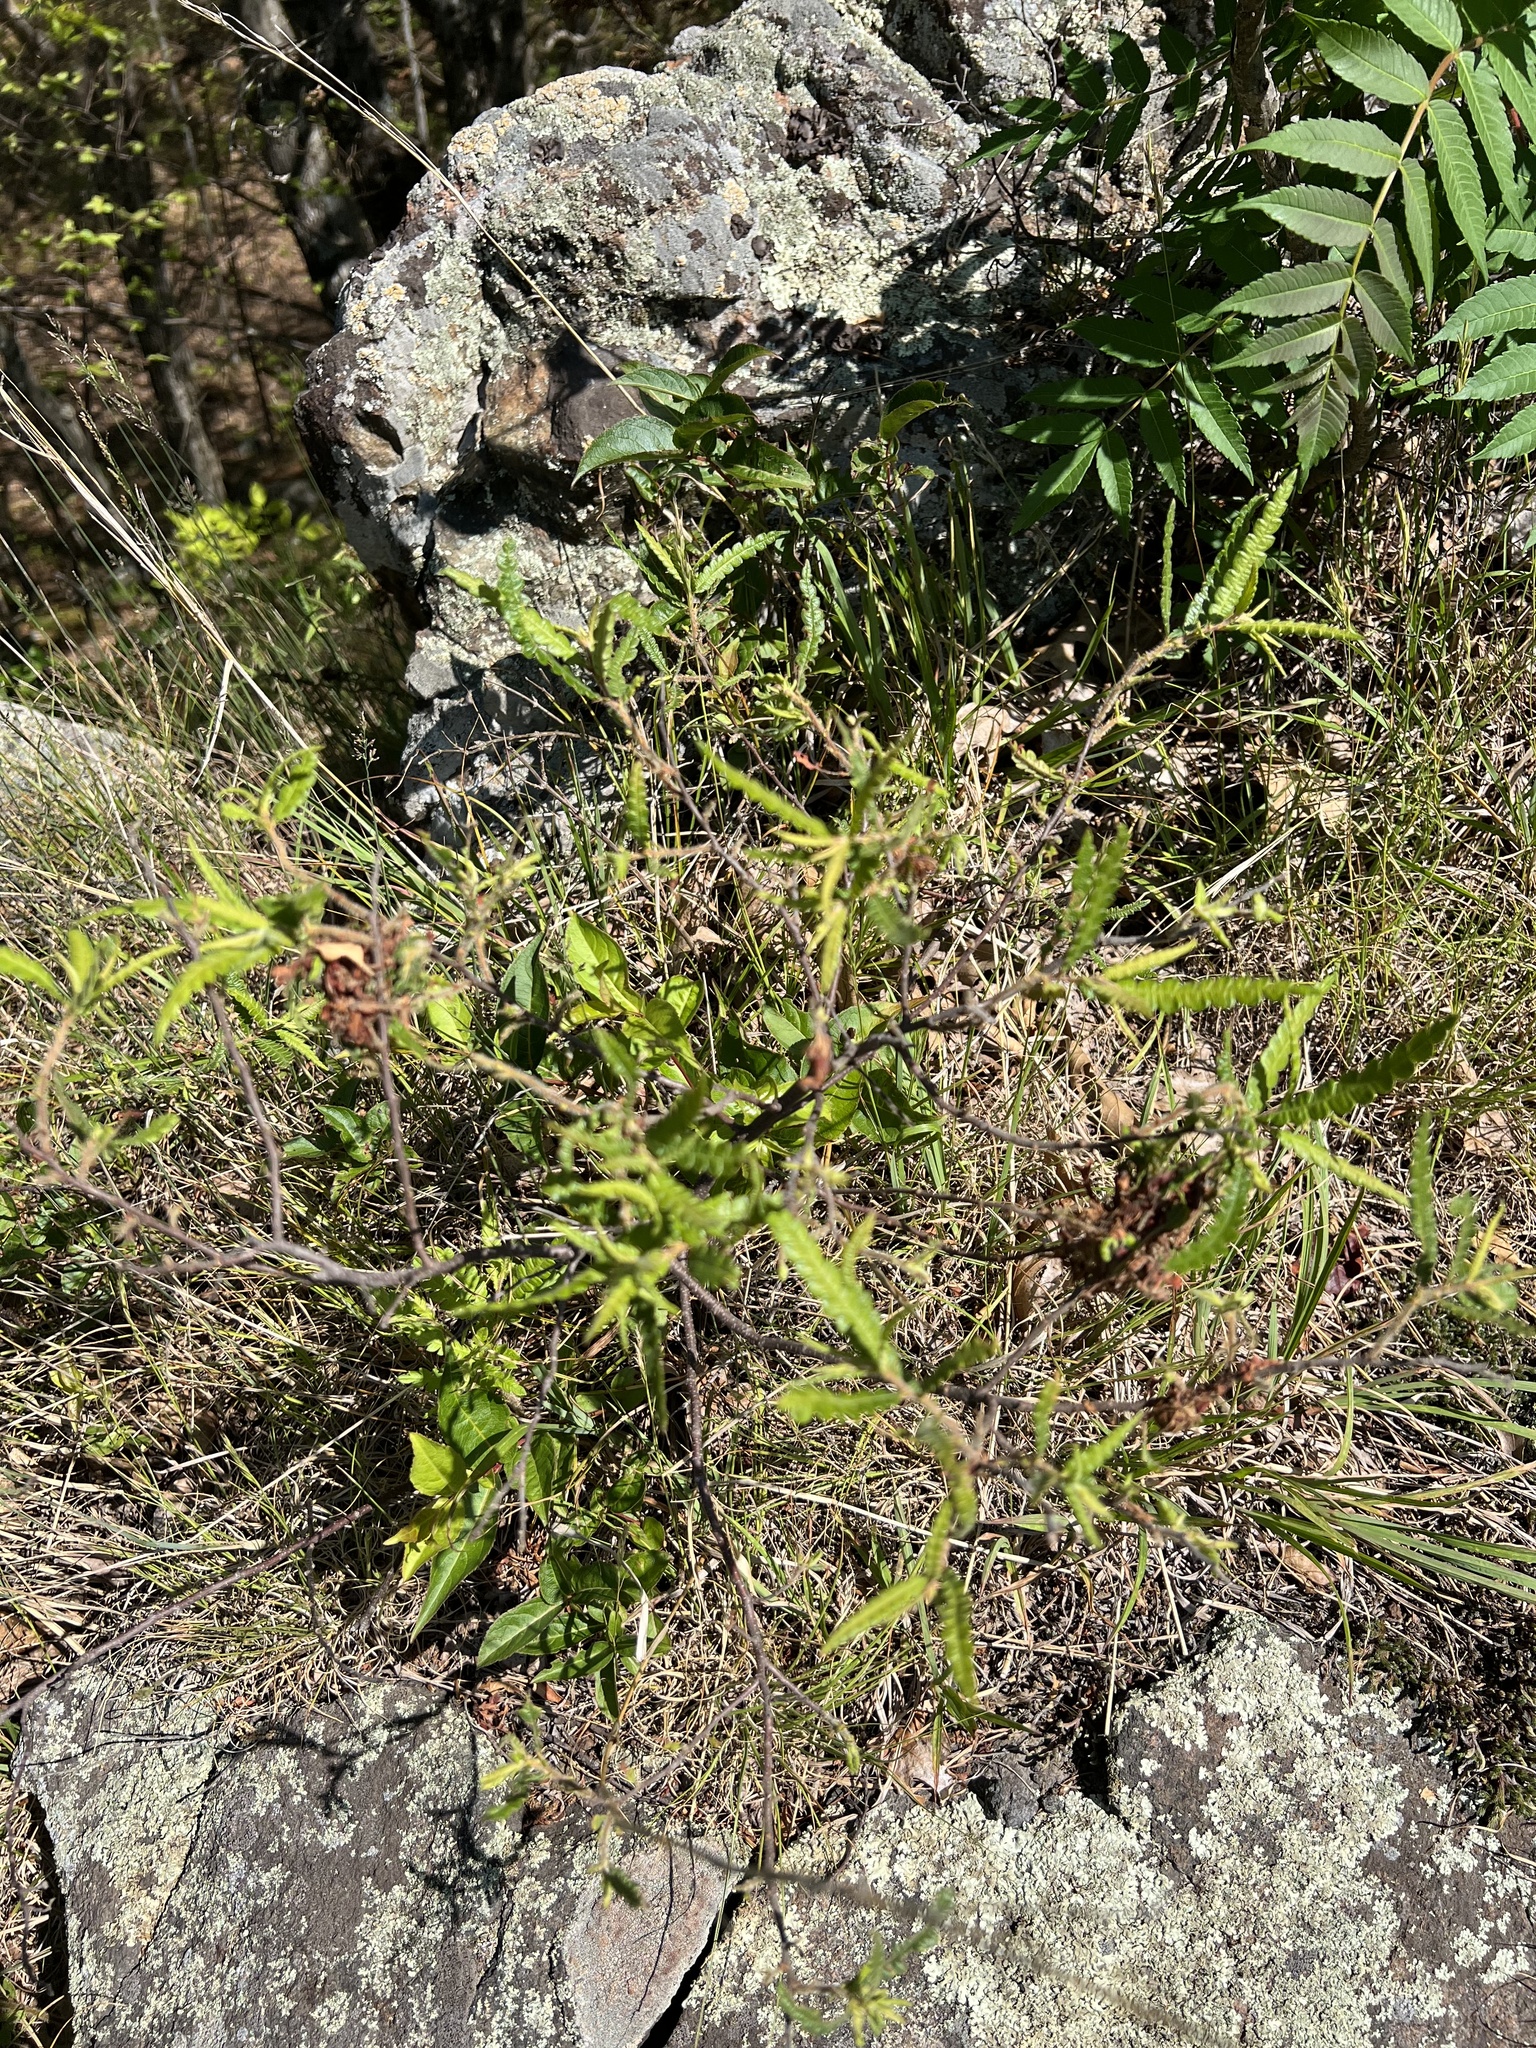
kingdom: Plantae
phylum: Tracheophyta
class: Magnoliopsida
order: Fagales
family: Myricaceae
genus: Comptonia
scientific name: Comptonia peregrina
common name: Sweet-fern
